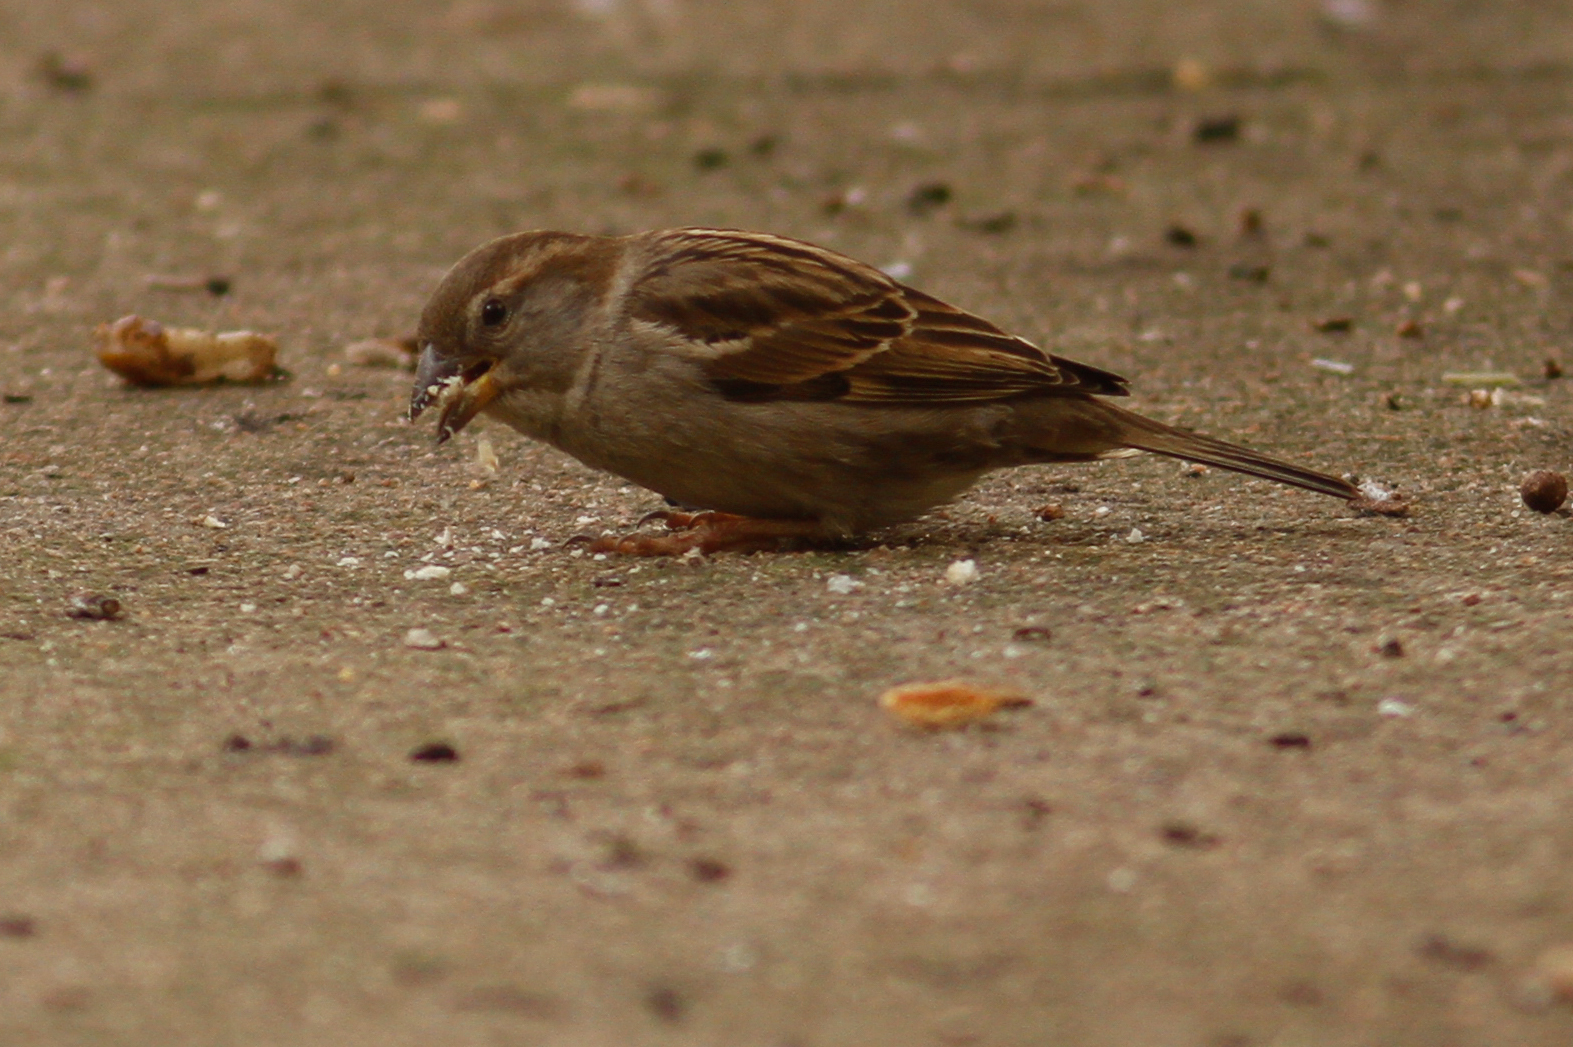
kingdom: Animalia
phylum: Chordata
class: Aves
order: Passeriformes
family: Passeridae
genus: Passer
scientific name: Passer italiae
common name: Italian sparrow
